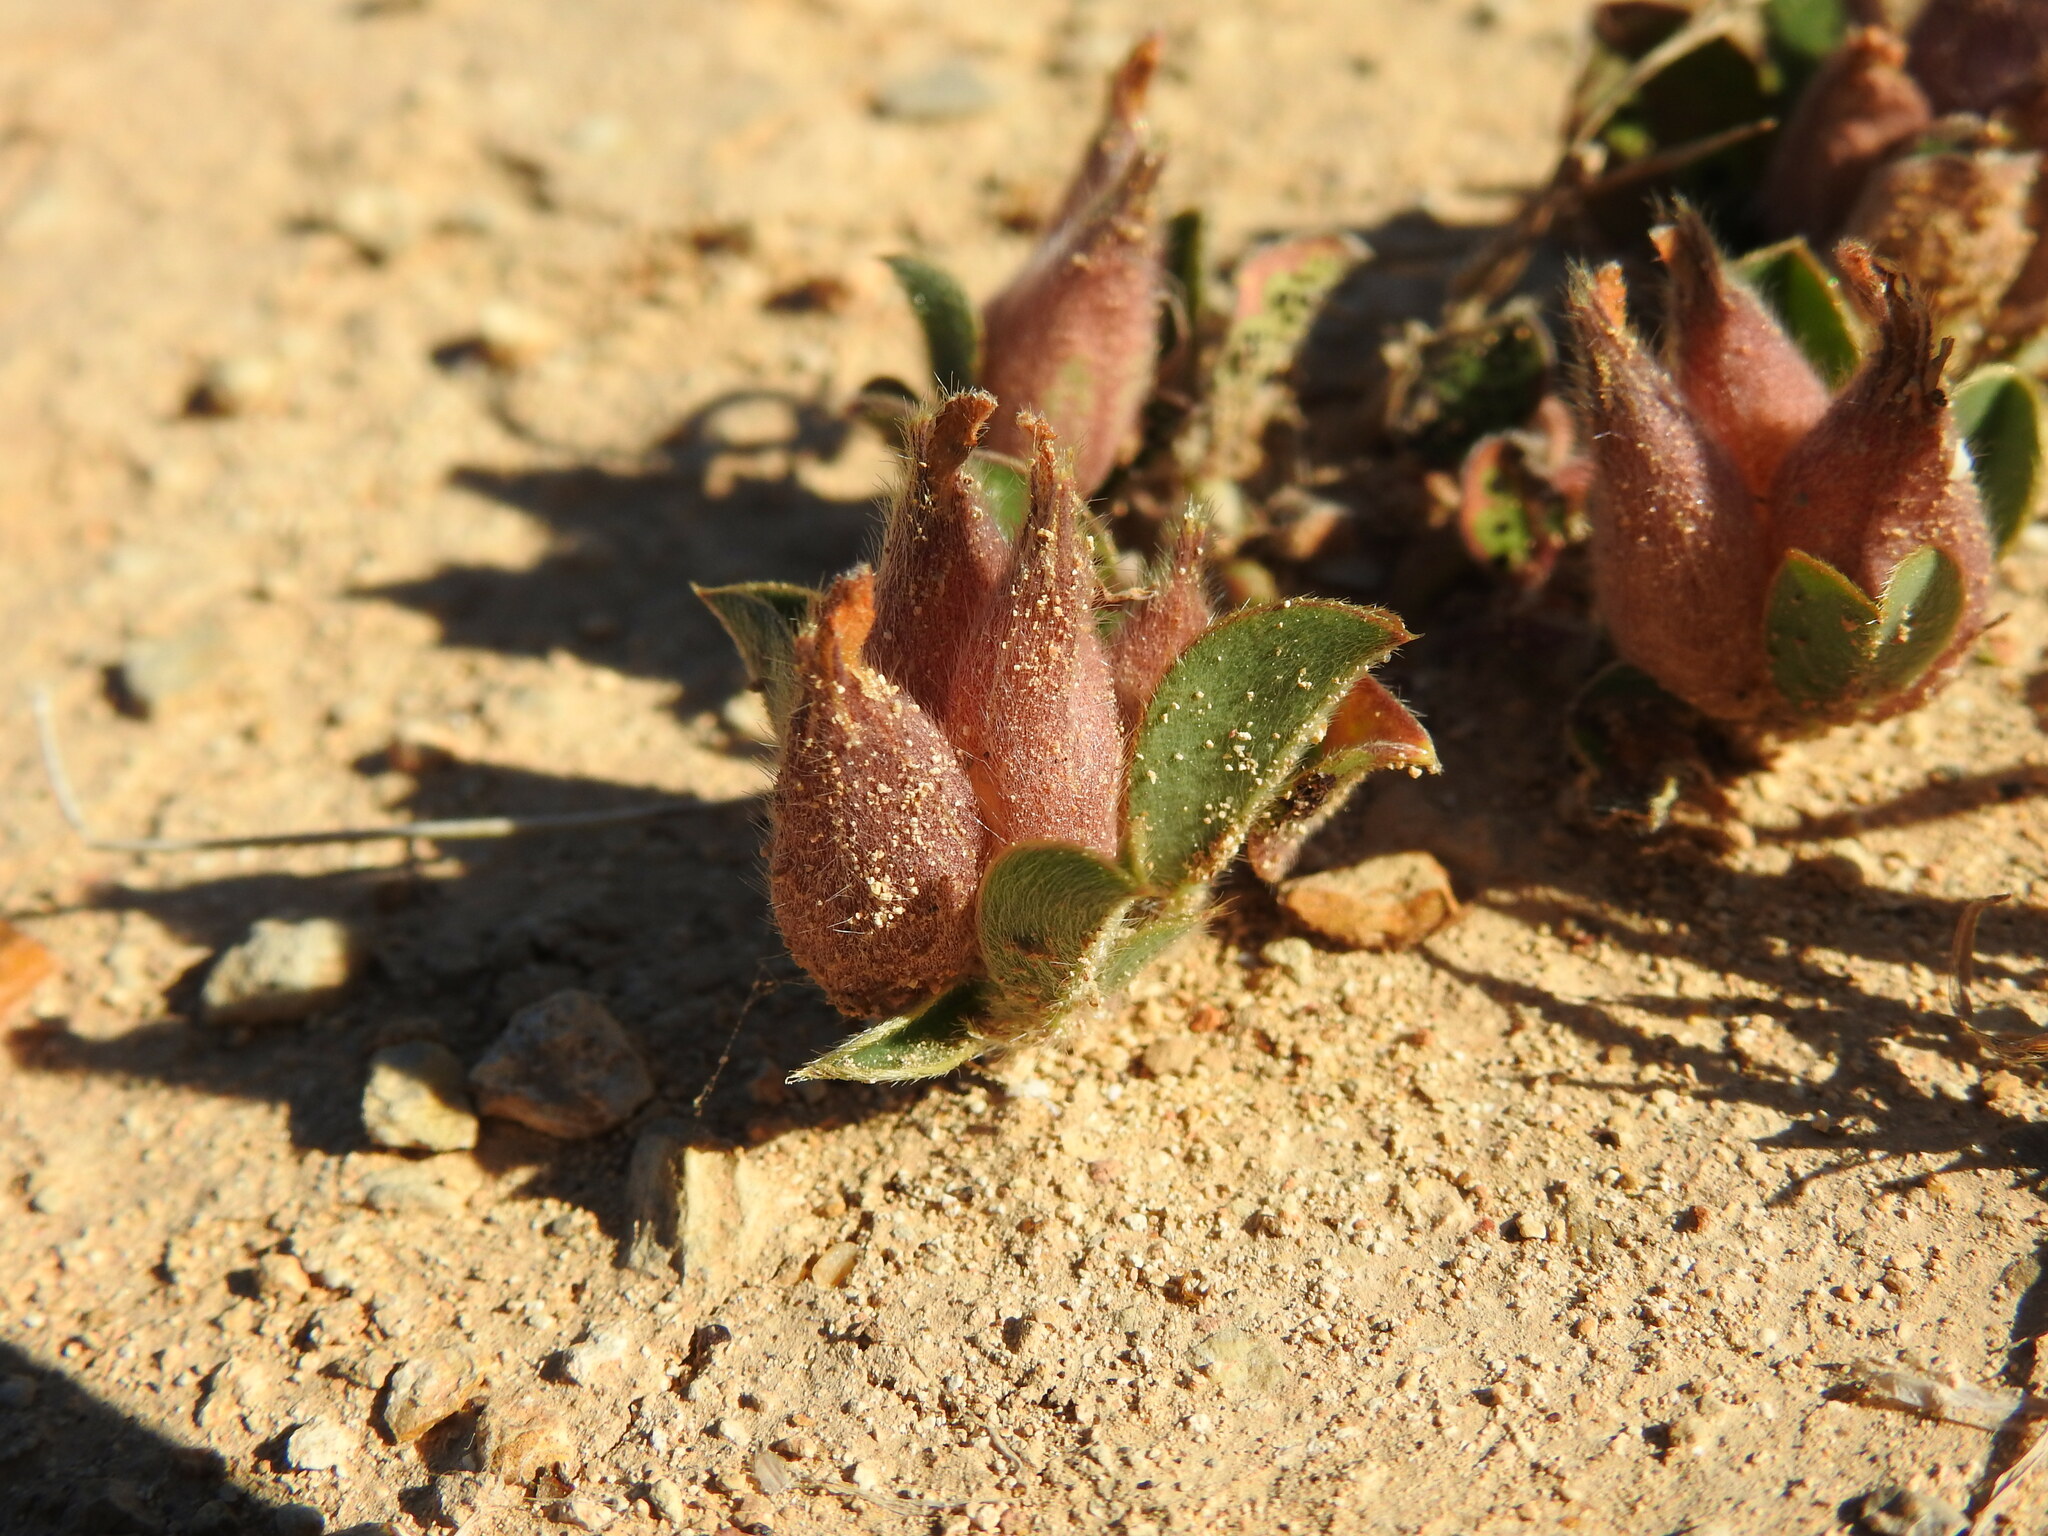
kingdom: Plantae
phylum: Tracheophyta
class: Magnoliopsida
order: Fabales
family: Fabaceae
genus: Tripodion
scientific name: Tripodion tetraphyllum
